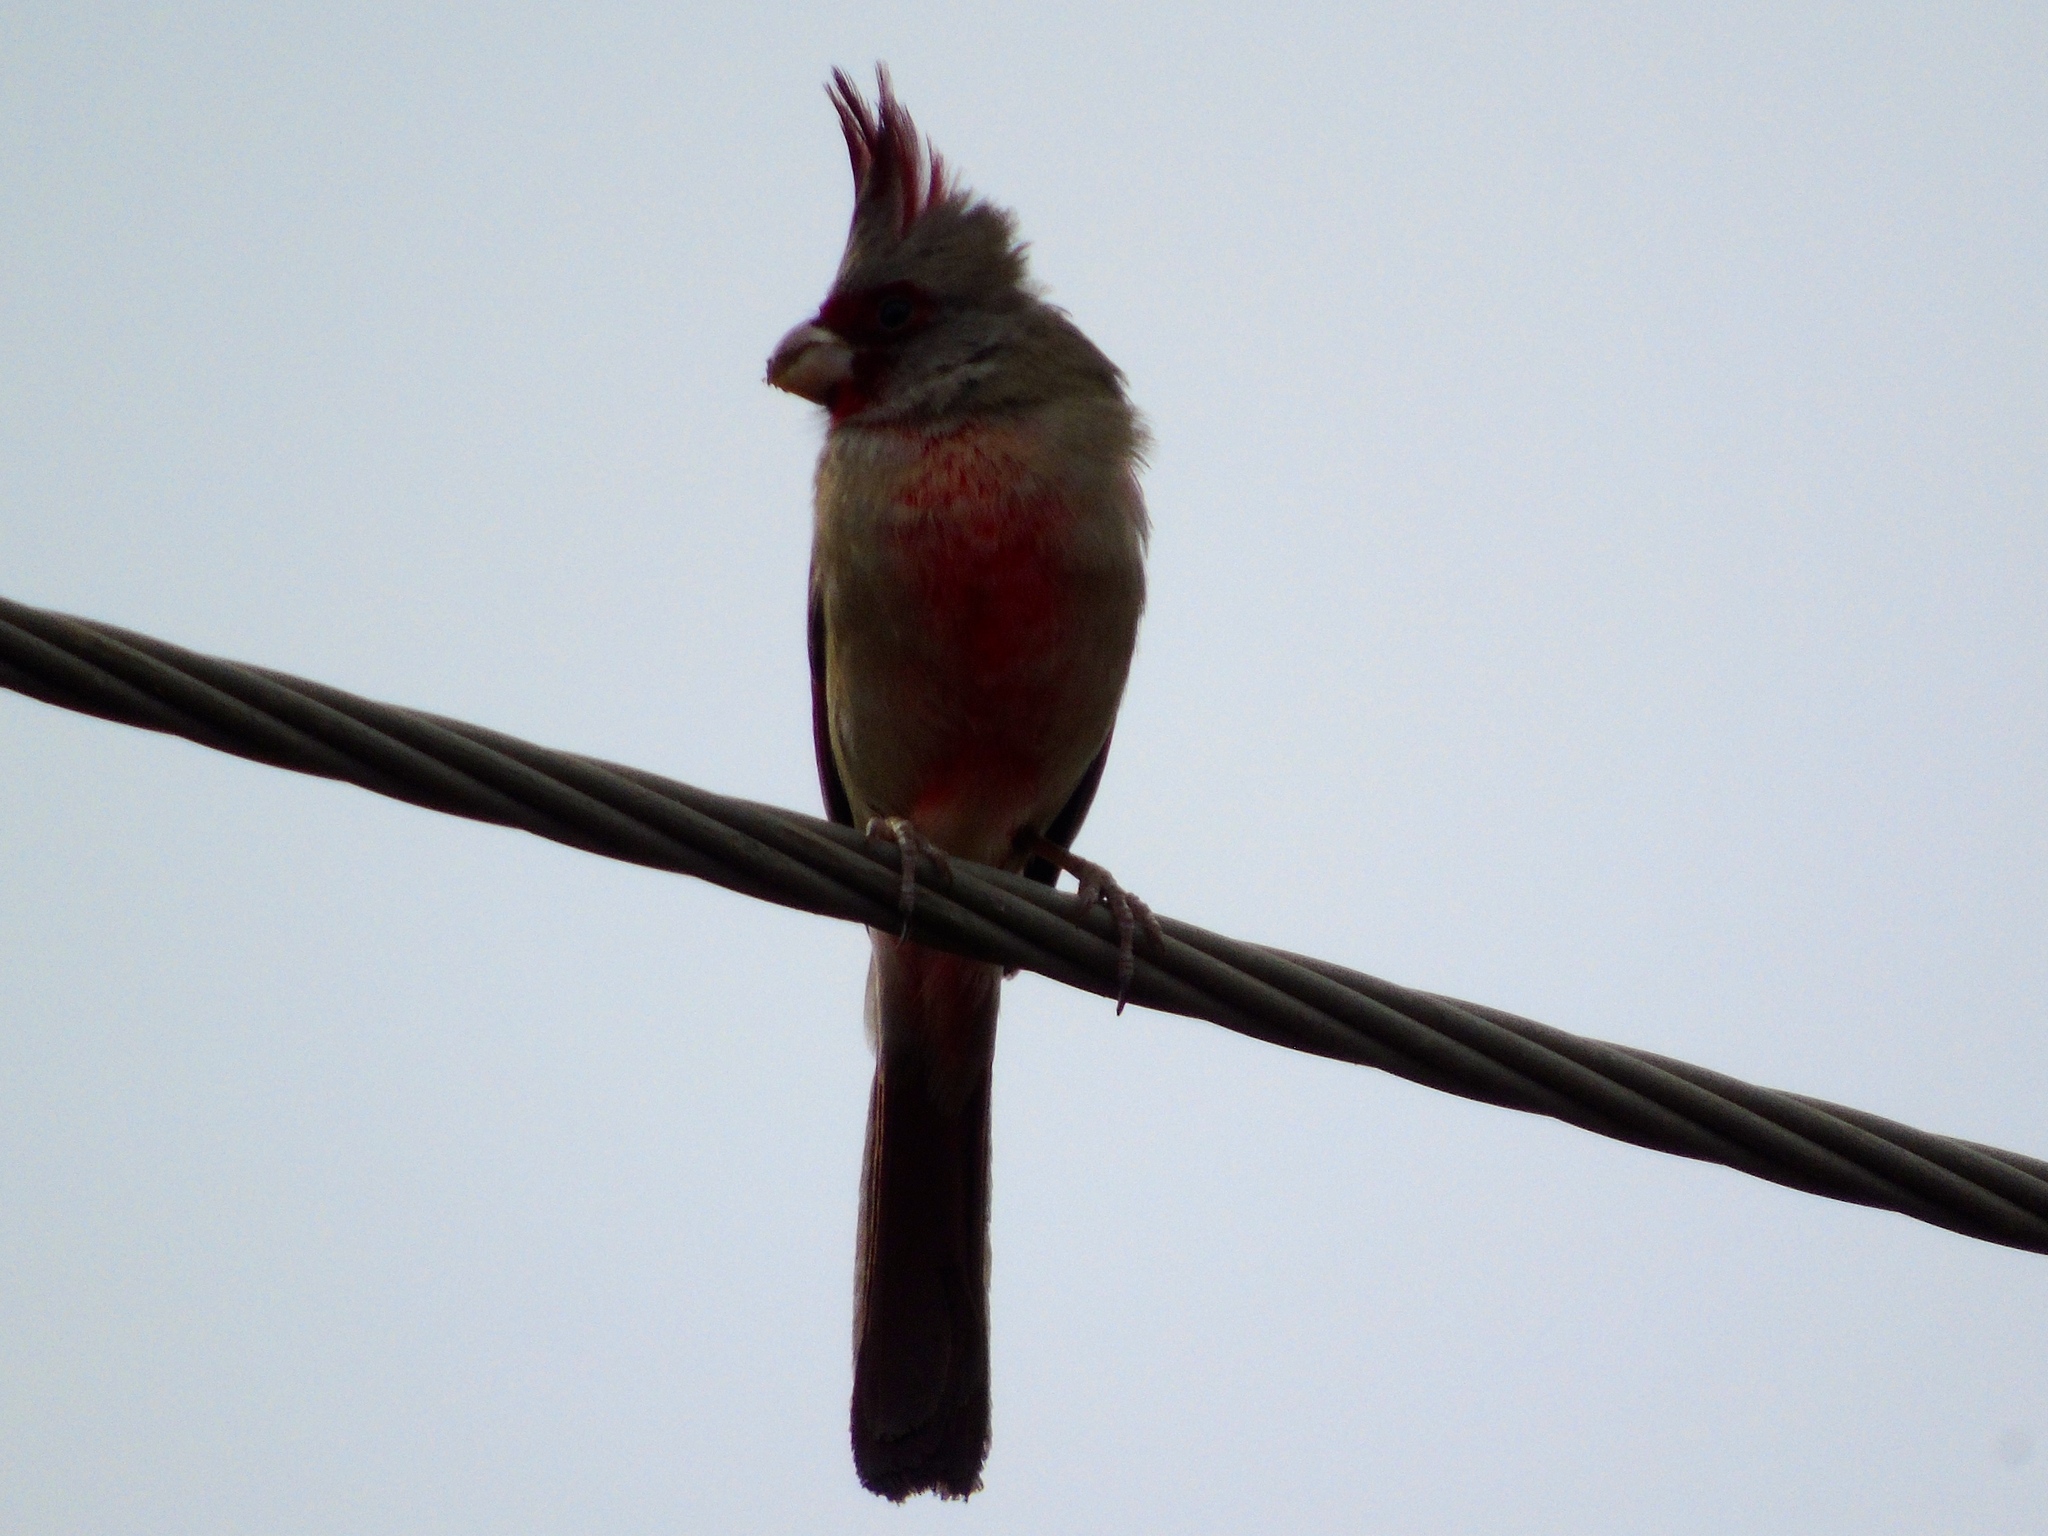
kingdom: Animalia
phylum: Chordata
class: Aves
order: Passeriformes
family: Cardinalidae
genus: Cardinalis
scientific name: Cardinalis sinuatus
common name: Pyrrhuloxia
